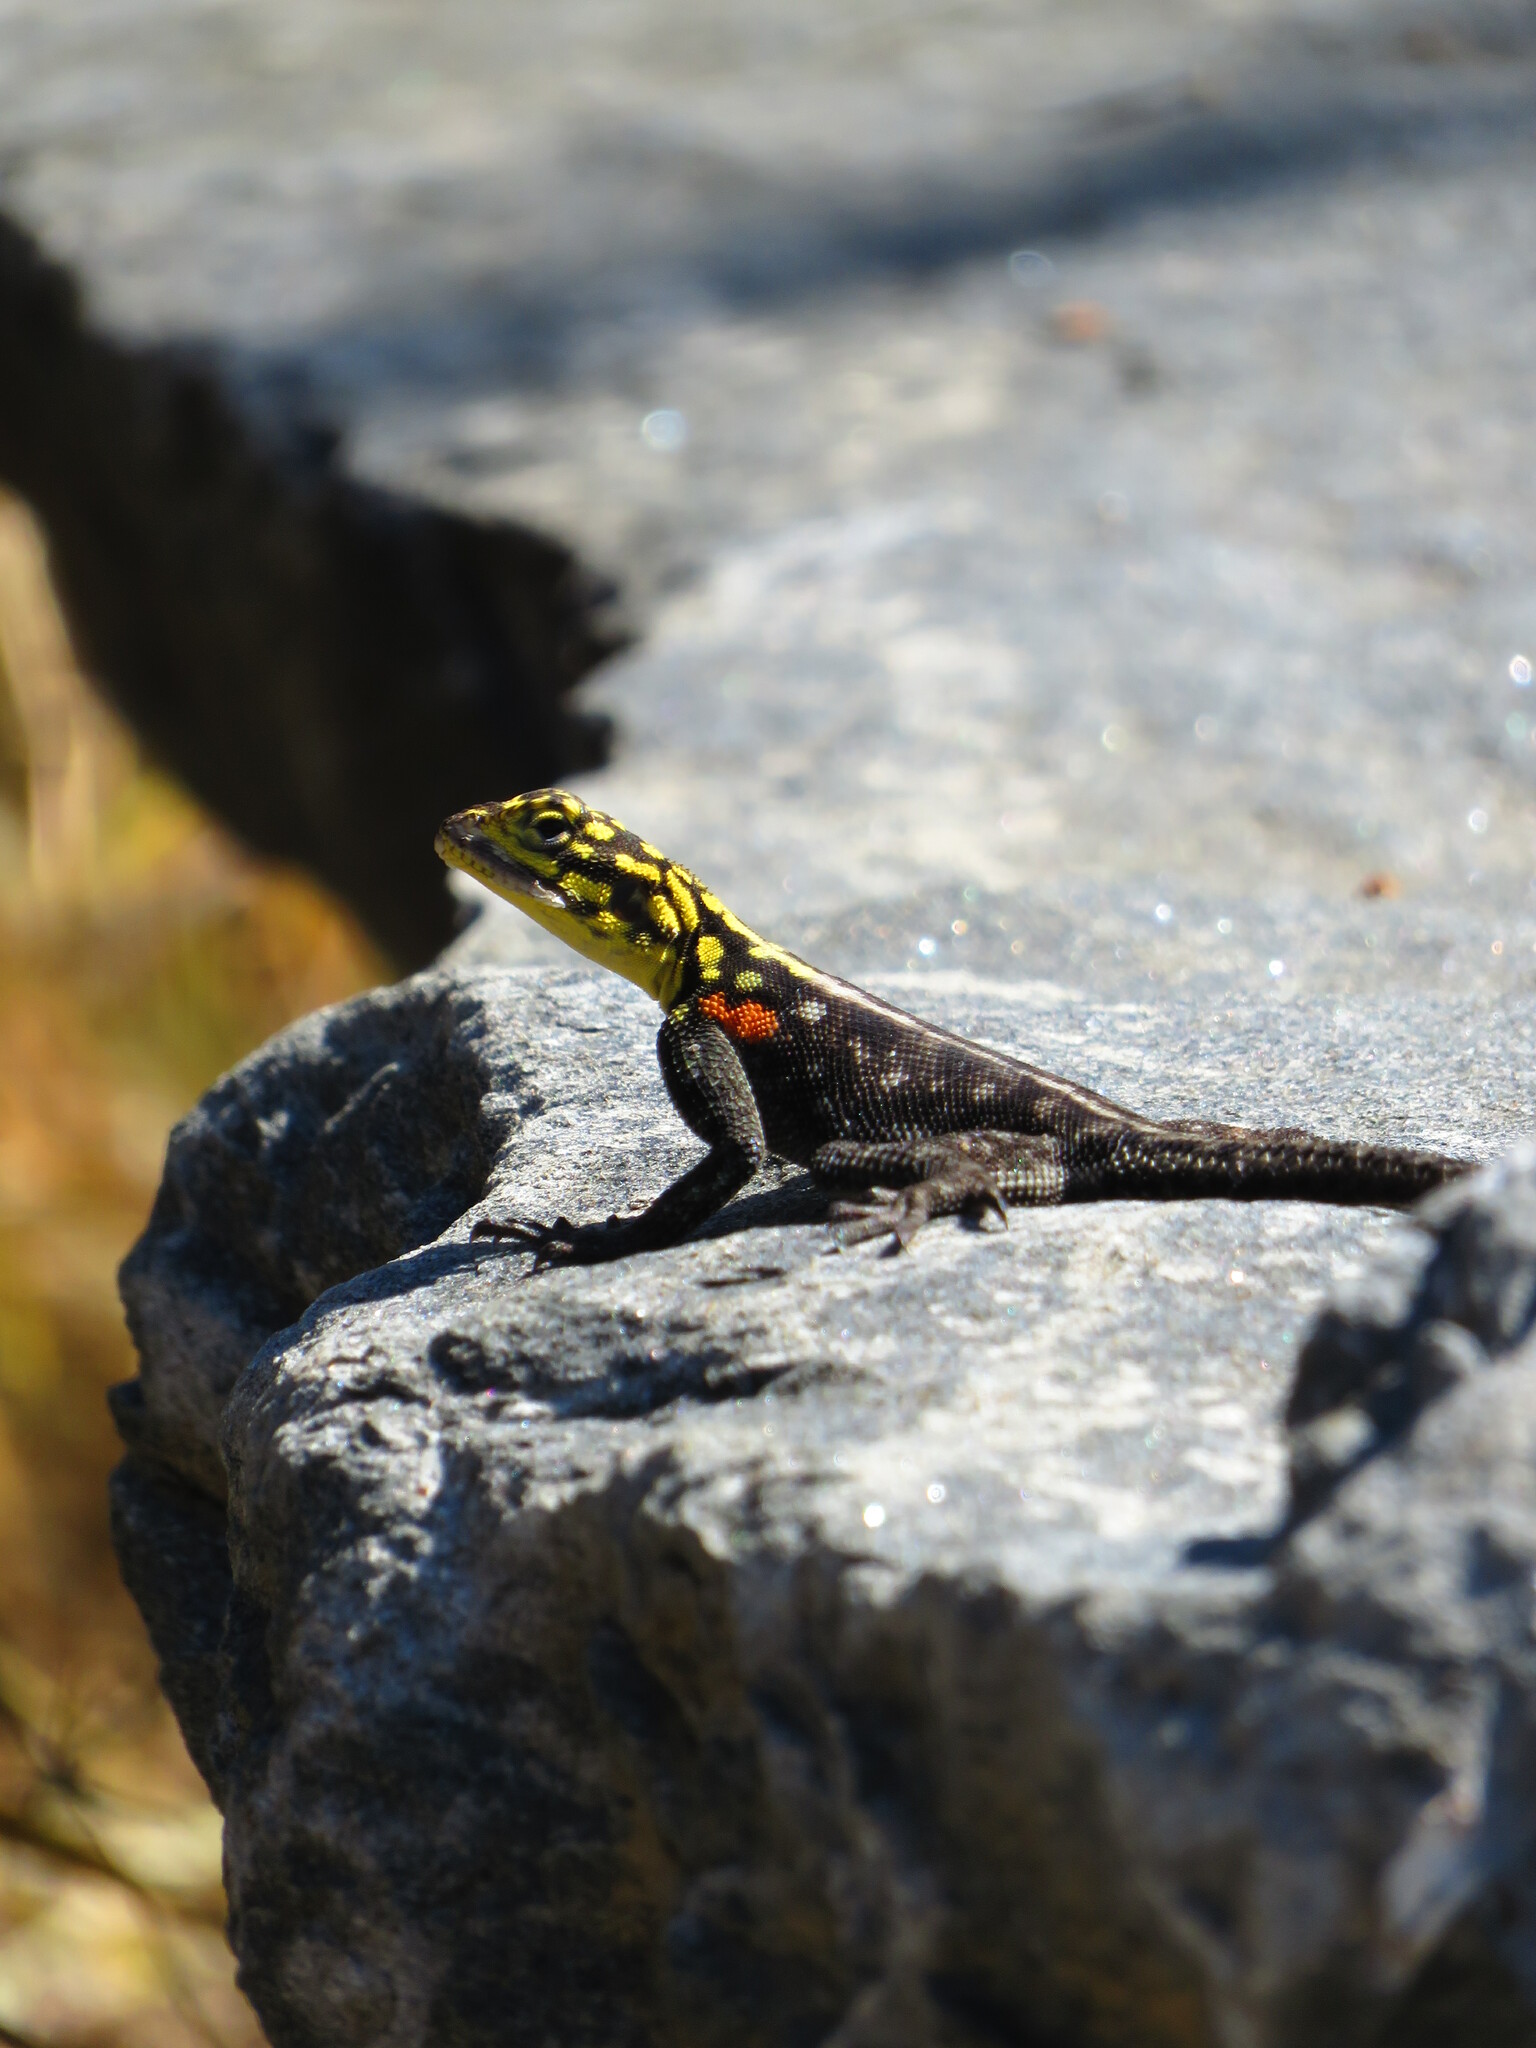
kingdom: Animalia
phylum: Chordata
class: Squamata
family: Agamidae
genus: Agama
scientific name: Agama planiceps
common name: Namib rock agama
